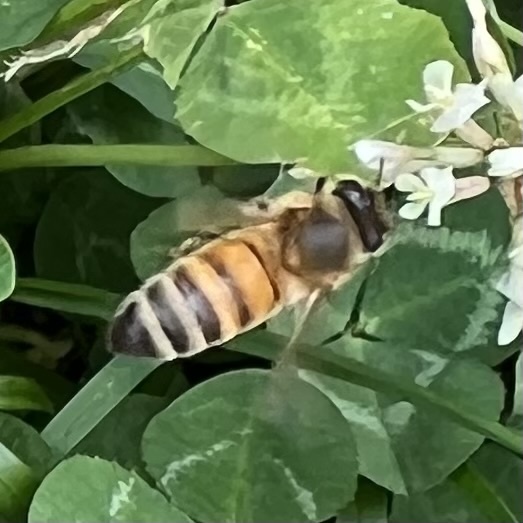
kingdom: Animalia
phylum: Arthropoda
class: Insecta
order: Hymenoptera
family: Apidae
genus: Apis
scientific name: Apis mellifera
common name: Honey bee
